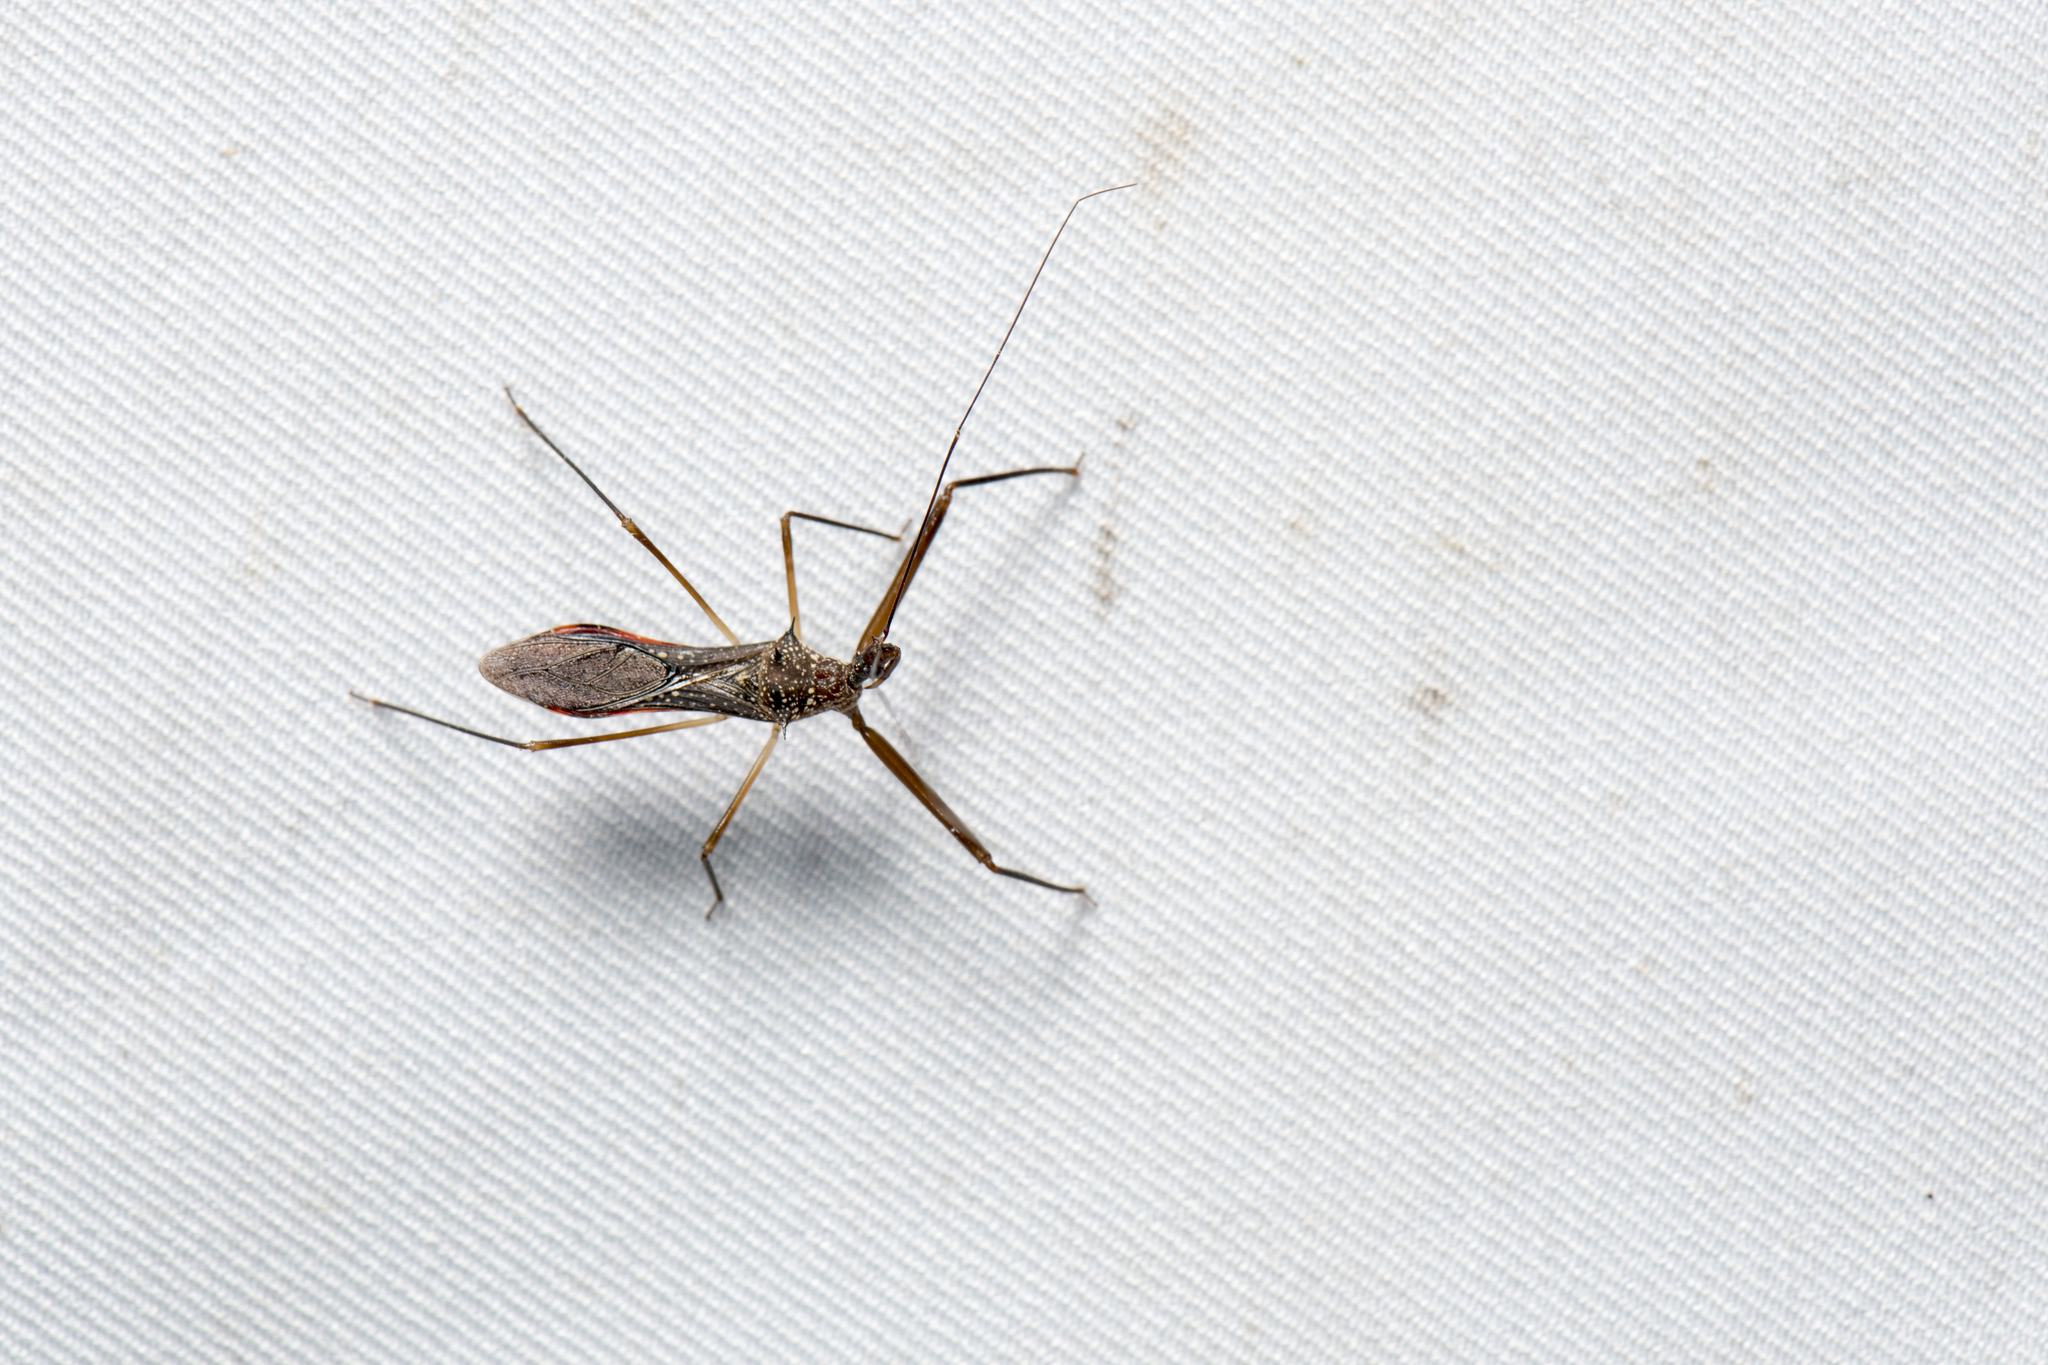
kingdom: Animalia
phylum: Arthropoda
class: Insecta
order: Hemiptera
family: Reduviidae
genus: Epidaus
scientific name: Epidaus sexspinus
